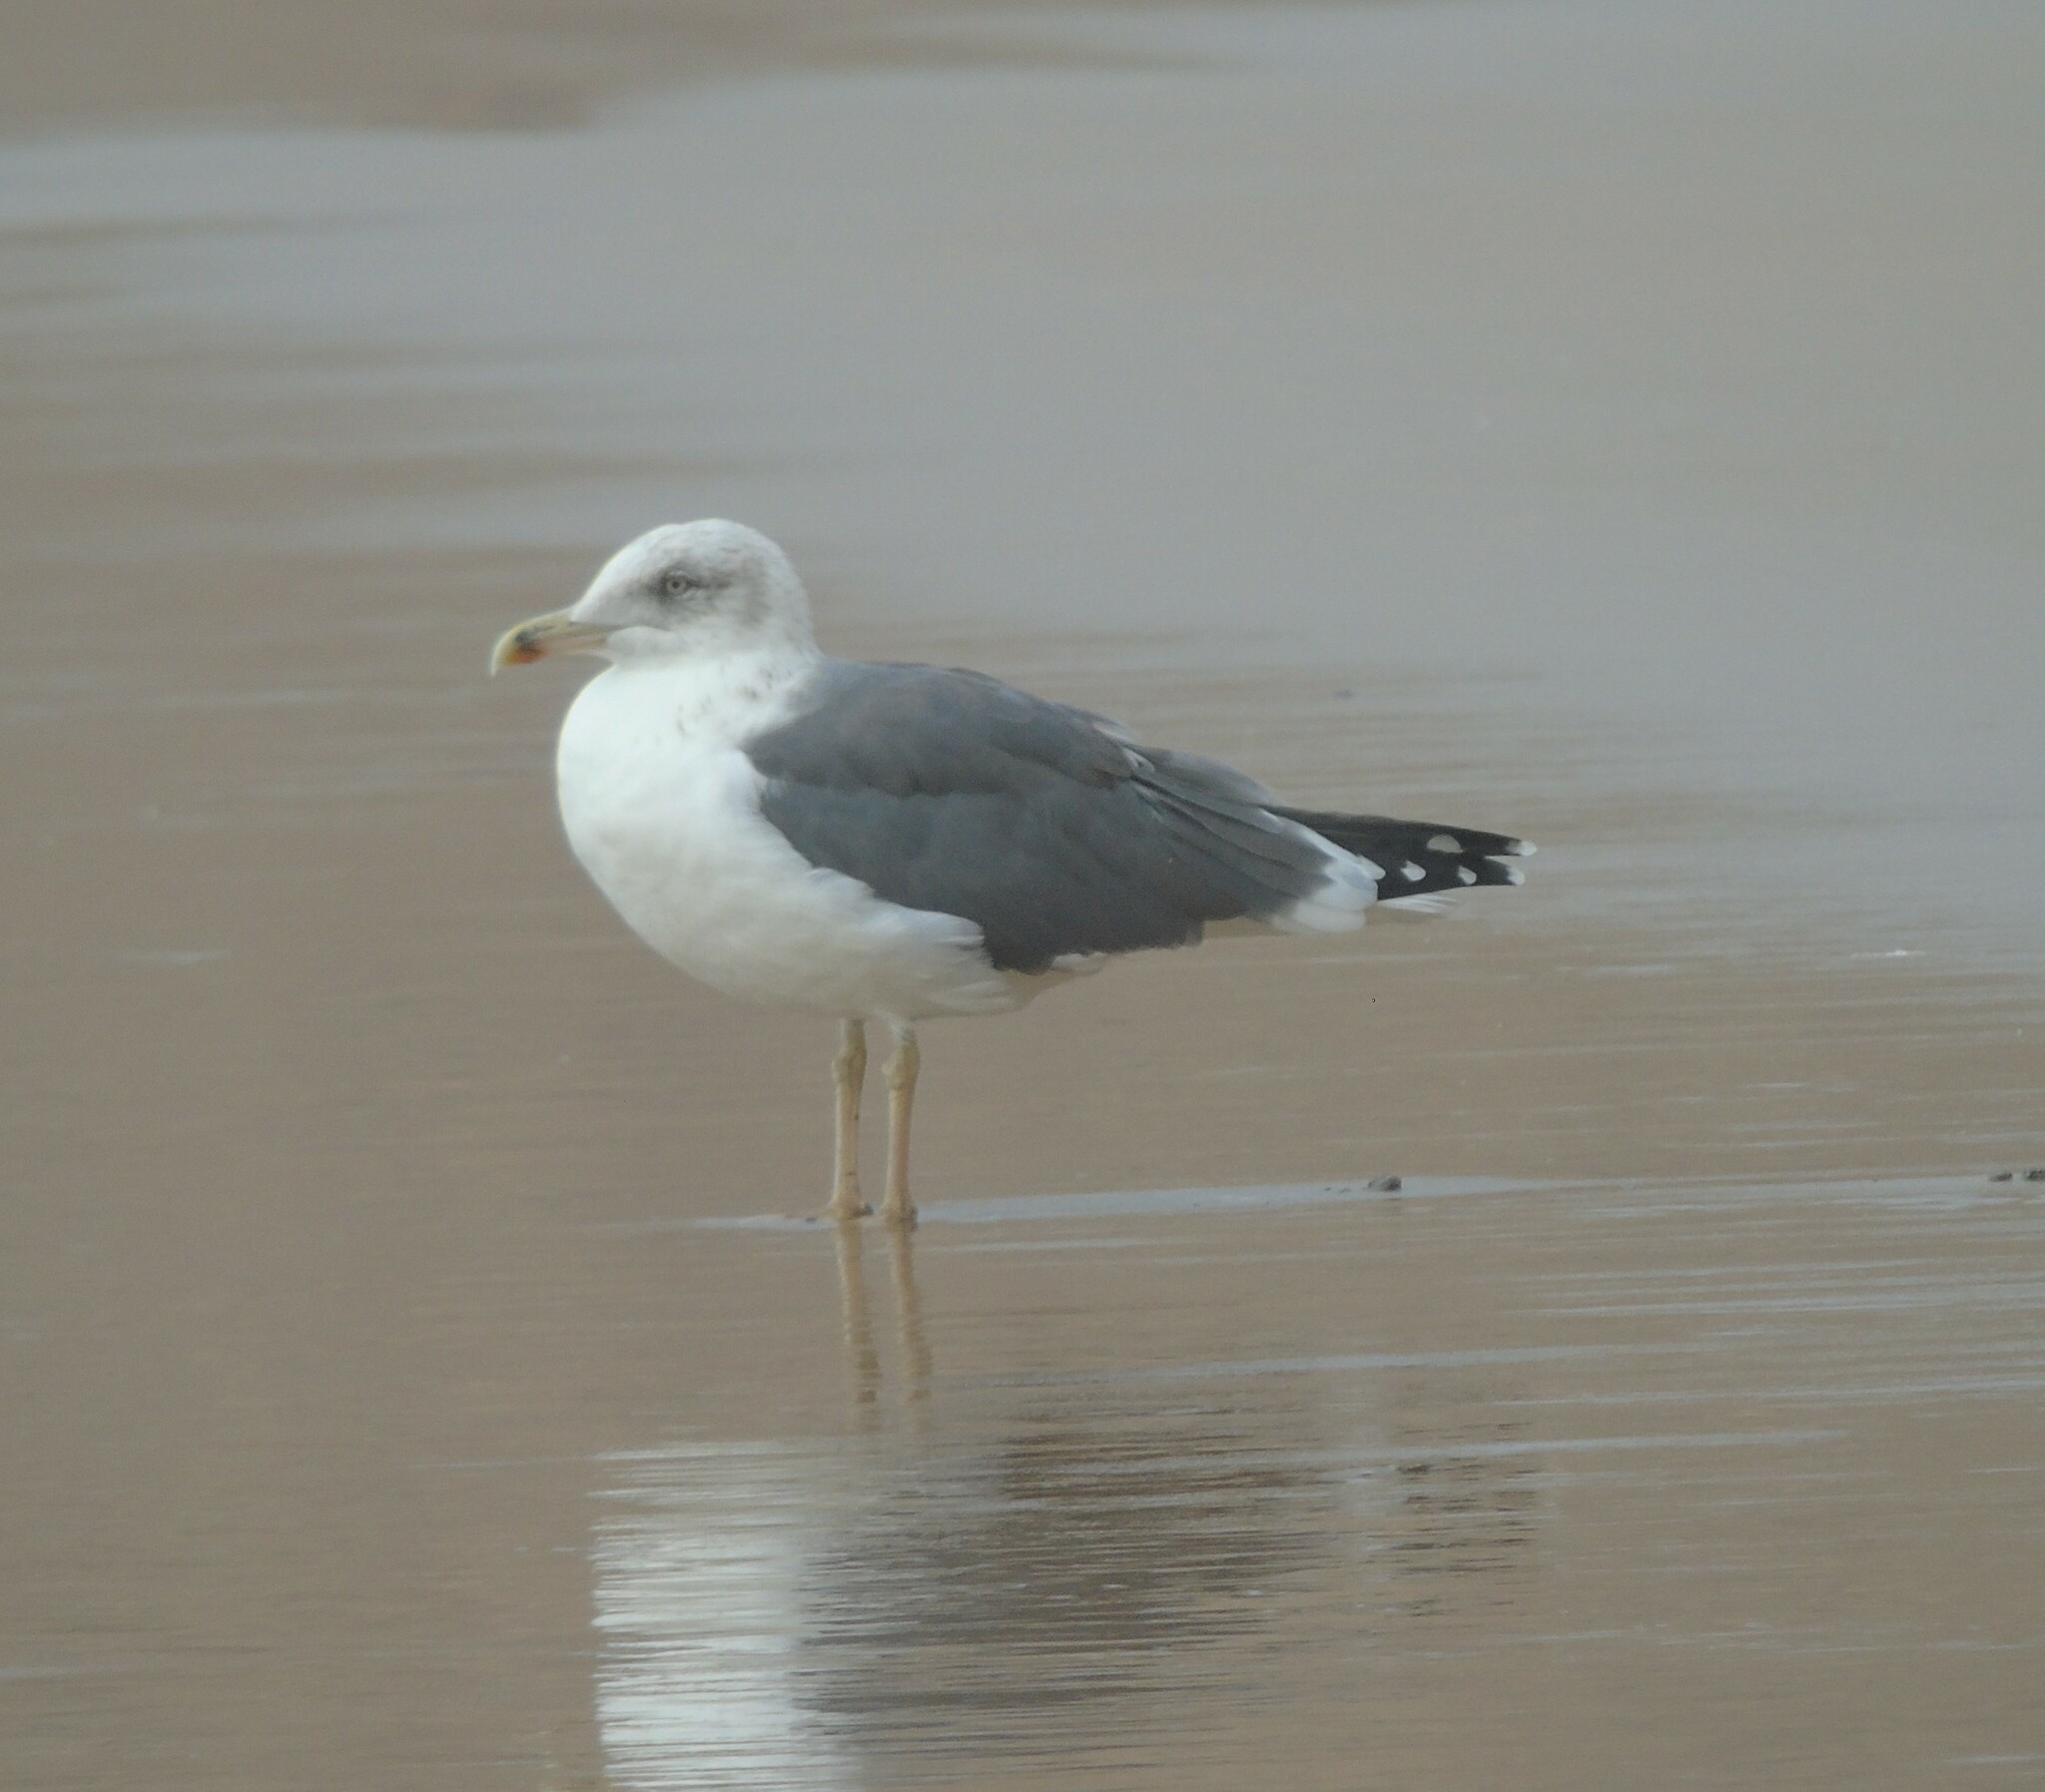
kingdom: Animalia
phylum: Chordata
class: Aves
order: Charadriiformes
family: Laridae
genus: Larus
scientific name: Larus fuscus
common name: Lesser black-backed gull
